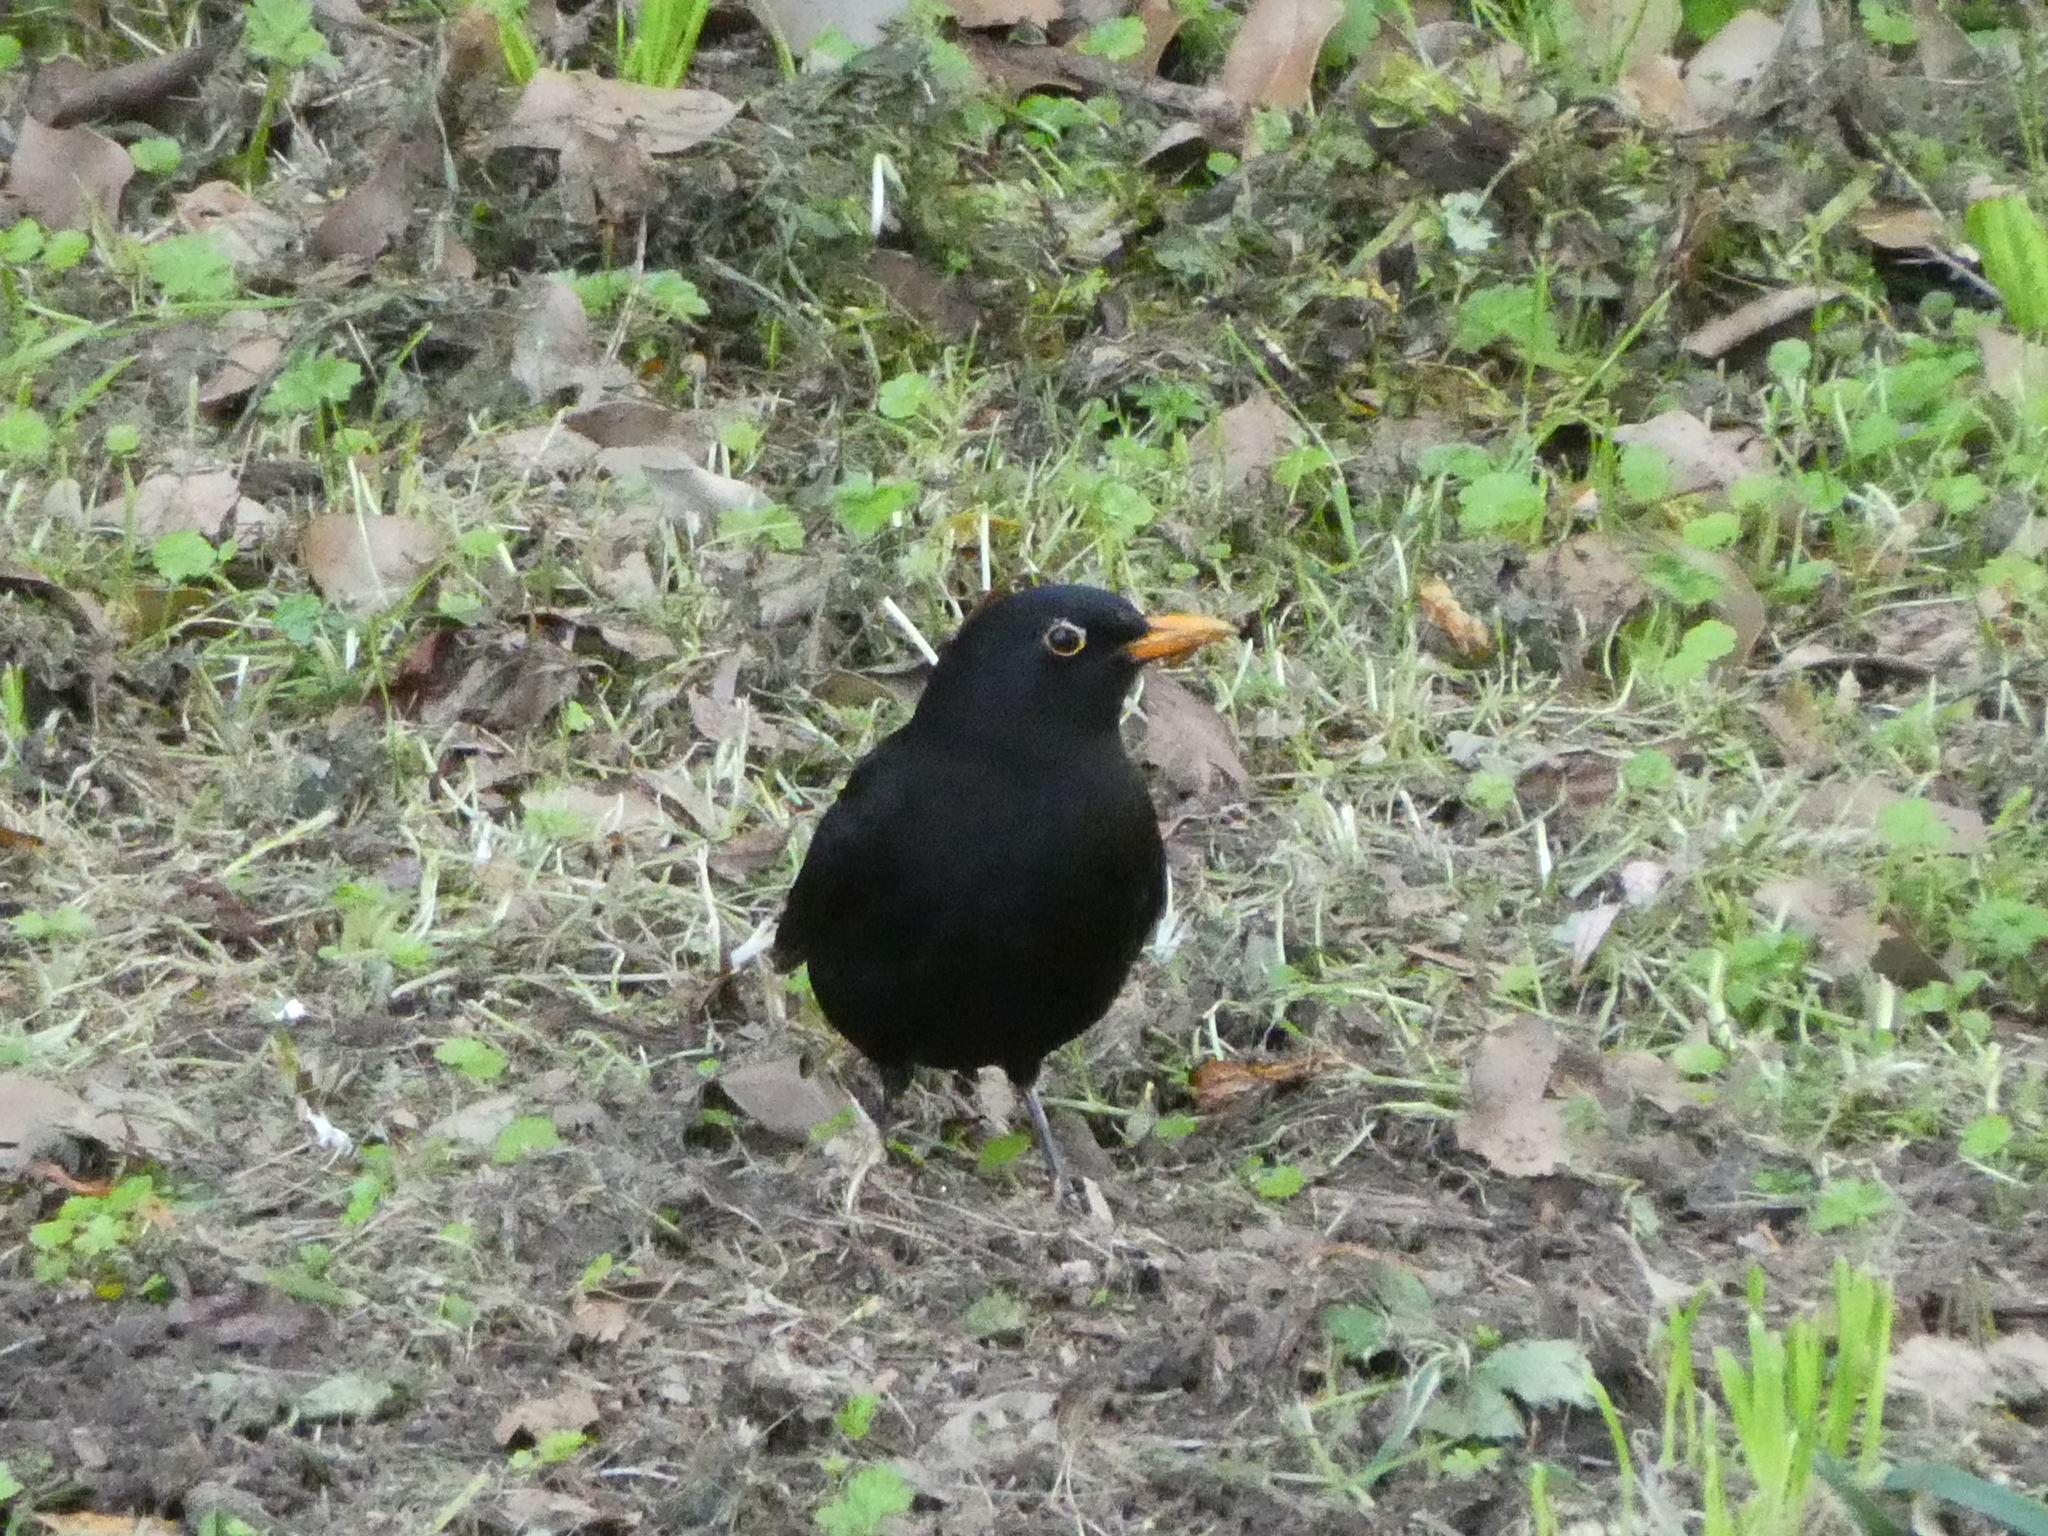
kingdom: Animalia
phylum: Chordata
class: Aves
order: Passeriformes
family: Turdidae
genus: Turdus
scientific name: Turdus merula
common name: Common blackbird
